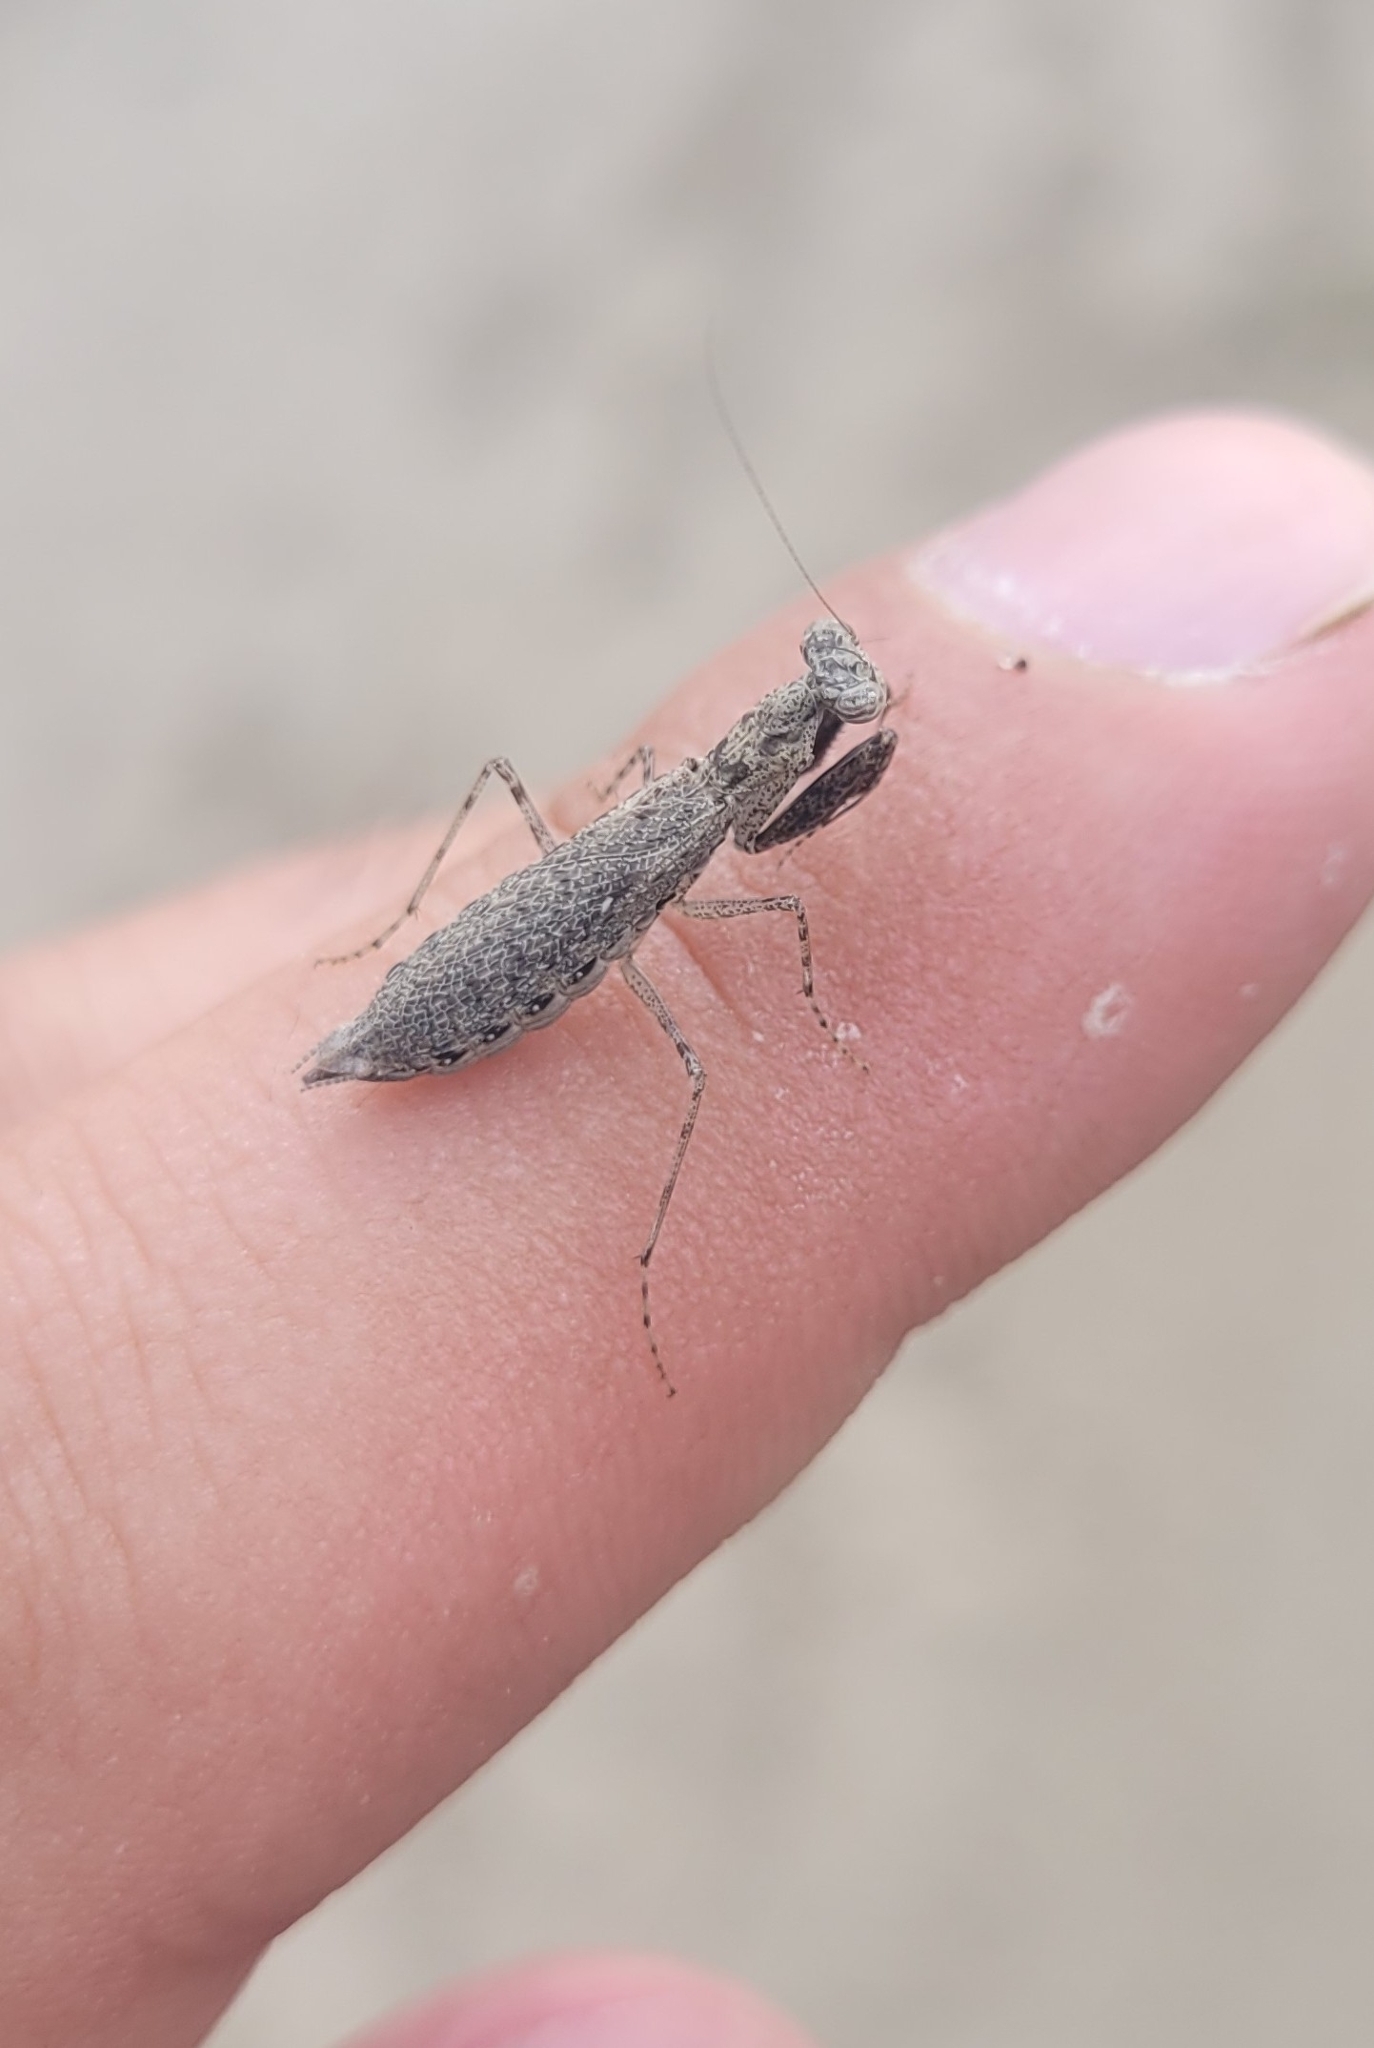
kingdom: Animalia
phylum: Arthropoda
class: Insecta
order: Mantodea
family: Gonypetidae
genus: Armene
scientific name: Armene pusilla
